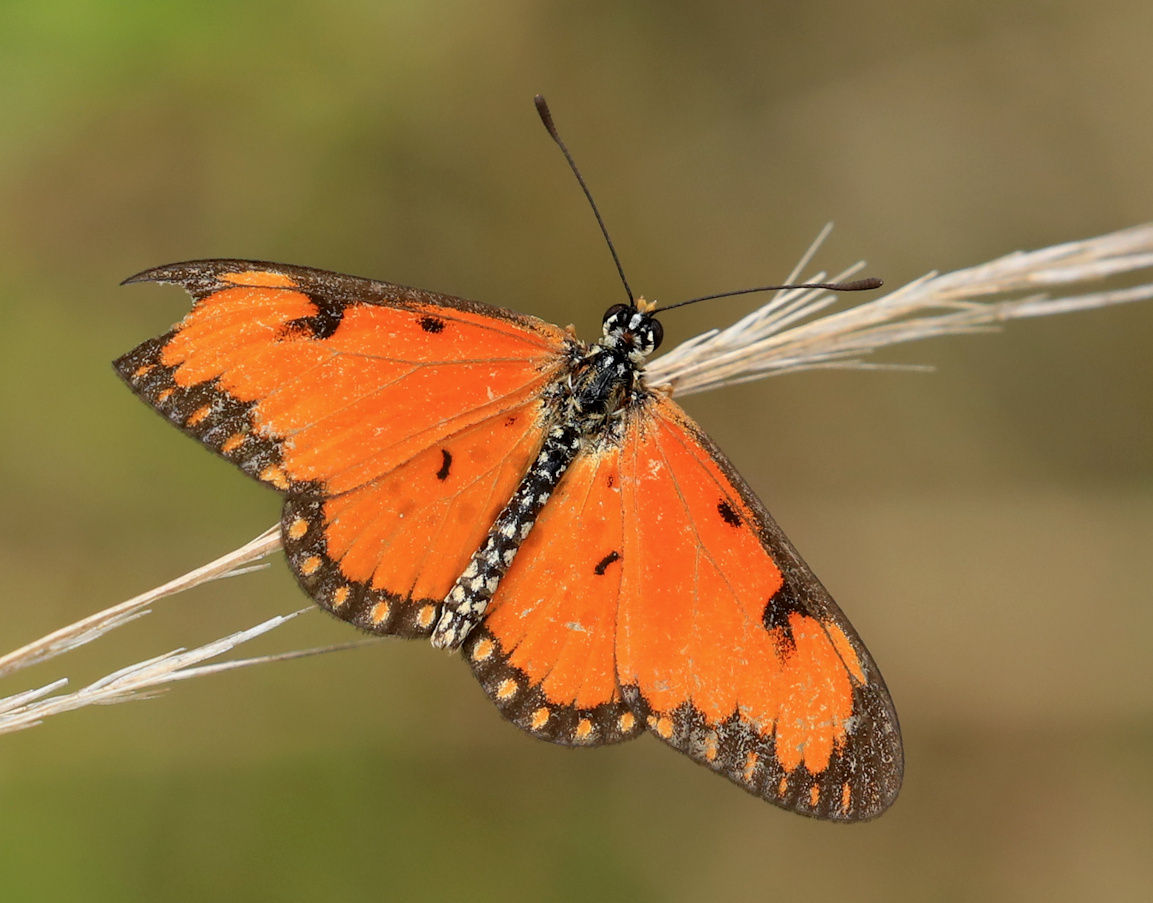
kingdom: Animalia
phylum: Arthropoda
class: Insecta
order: Lepidoptera
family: Nymphalidae
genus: Acraea
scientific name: Acraea Telchinia serena
